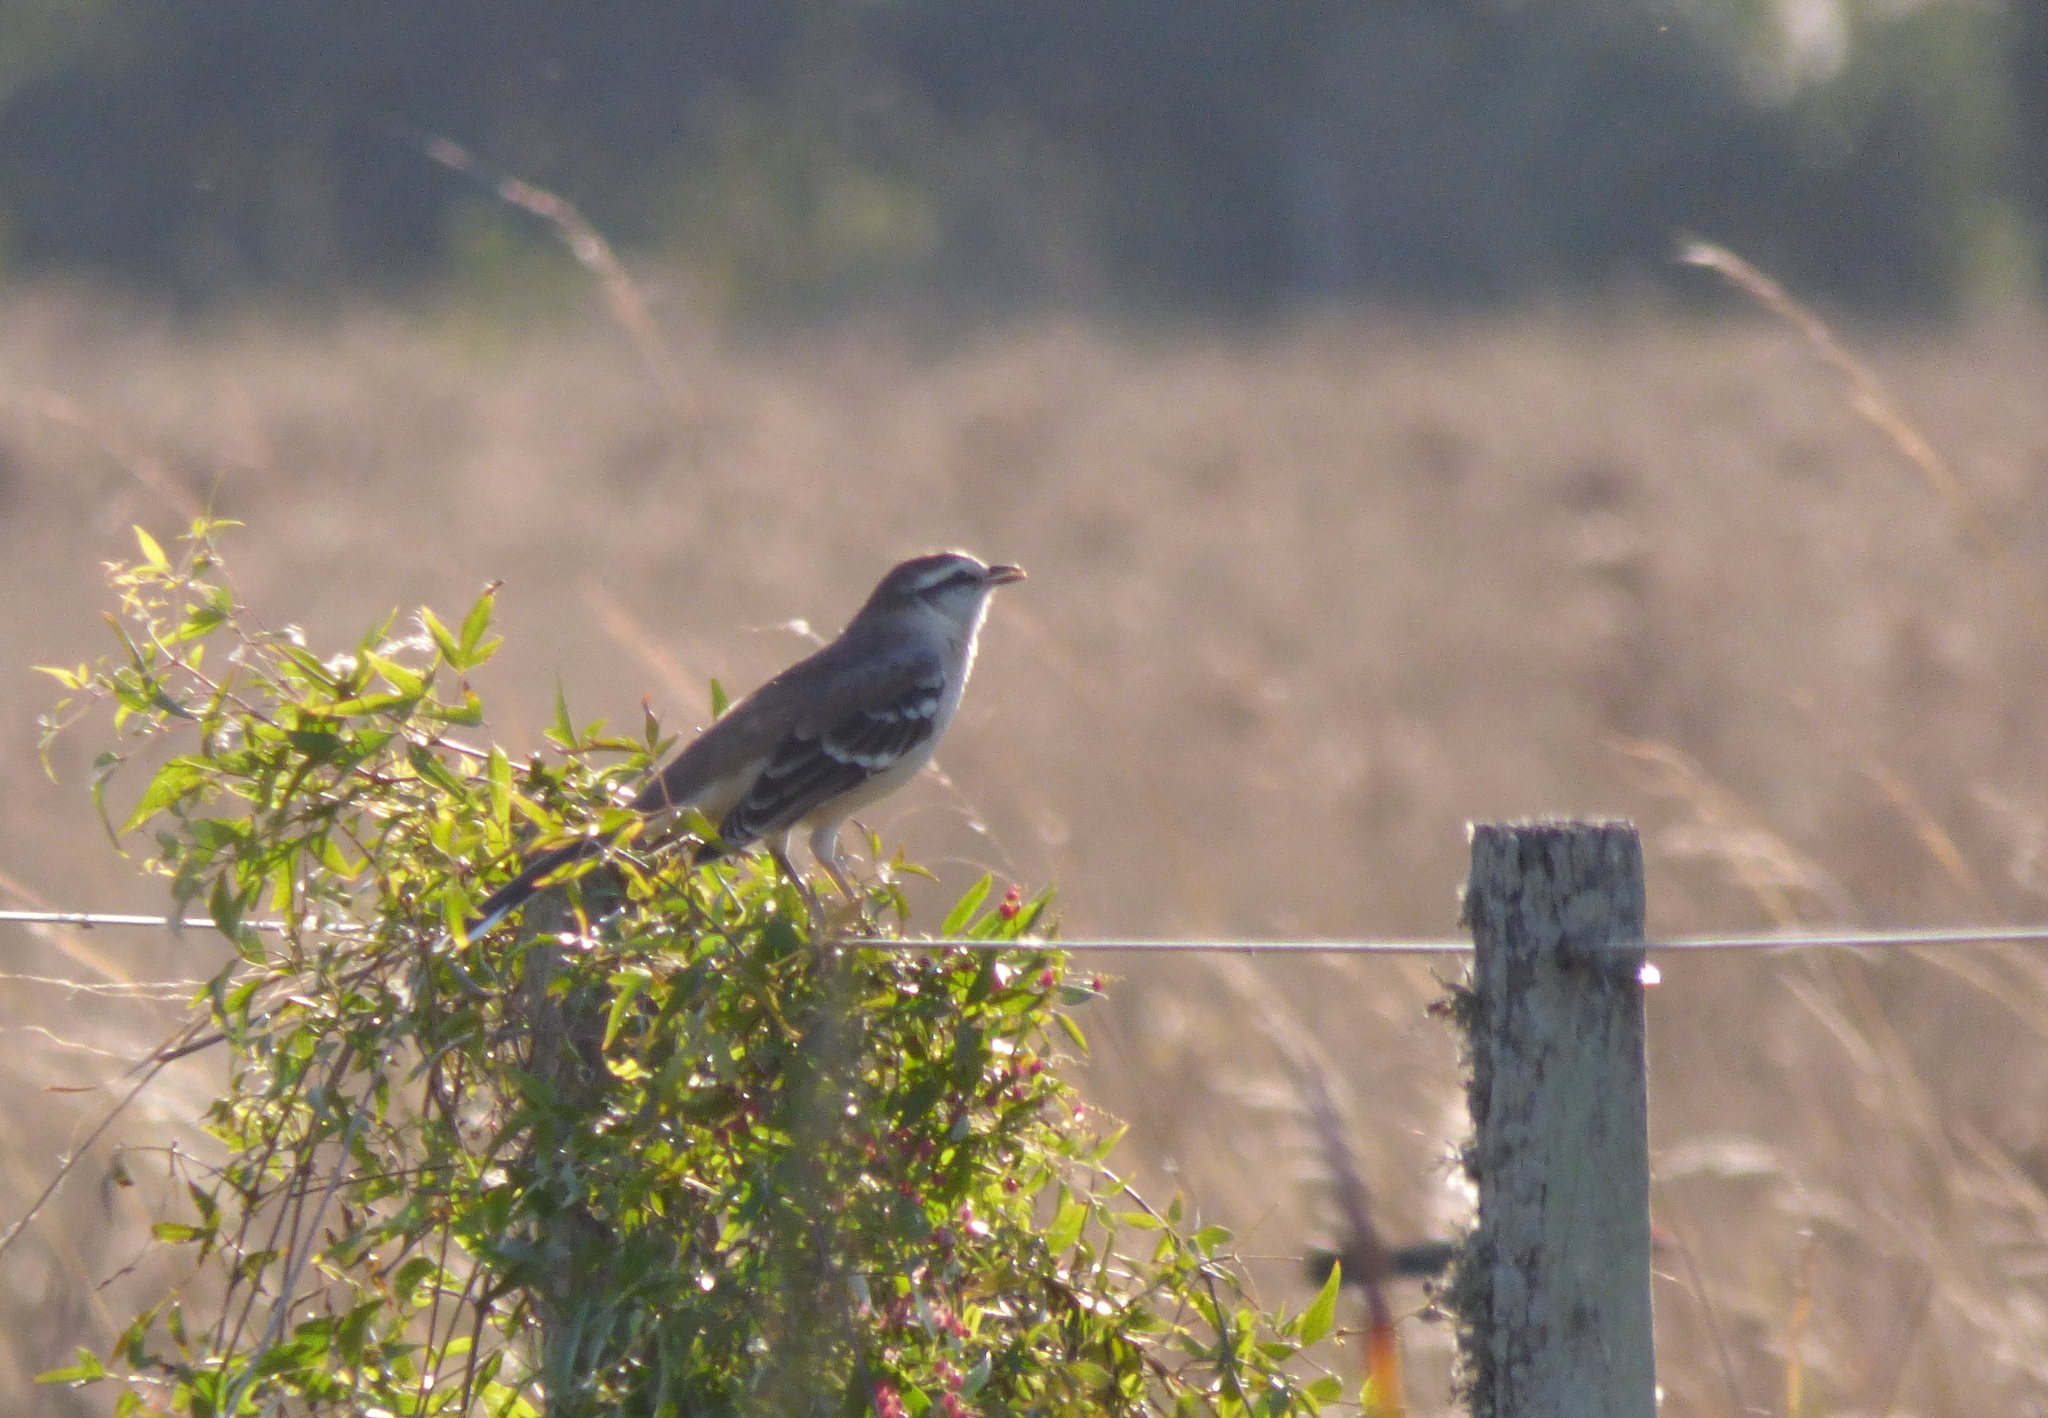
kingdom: Animalia
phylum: Chordata
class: Aves
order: Passeriformes
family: Mimidae
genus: Mimus
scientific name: Mimus saturninus
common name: Chalk-browed mockingbird
